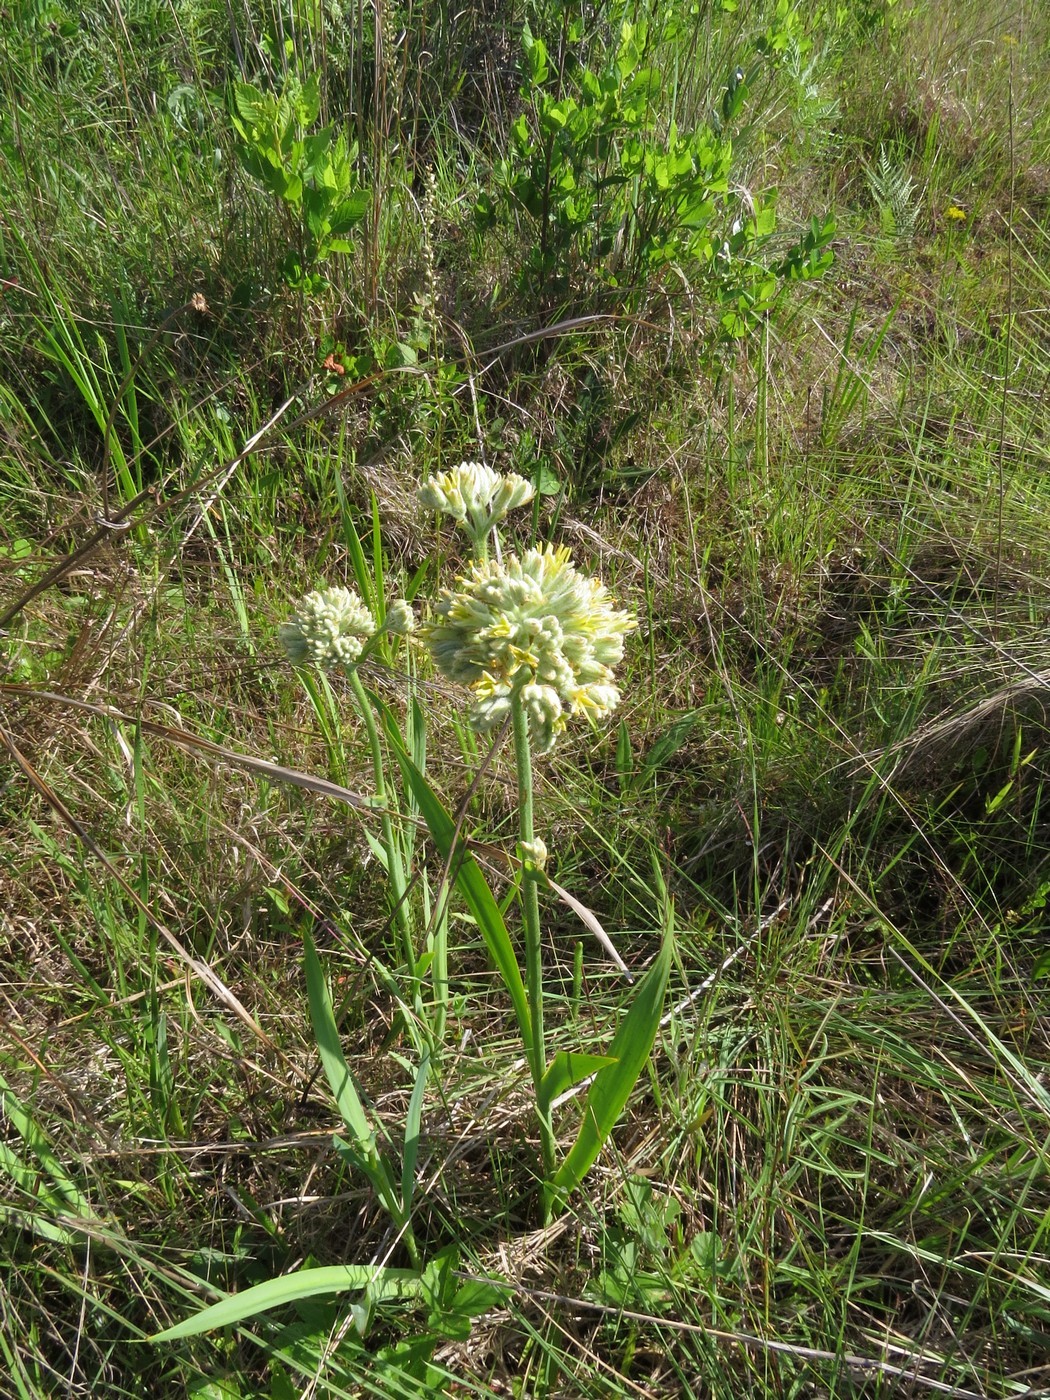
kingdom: Plantae
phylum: Tracheophyta
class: Liliopsida
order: Commelinales
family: Haemodoraceae
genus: Lachnanthes
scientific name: Lachnanthes caroliana
